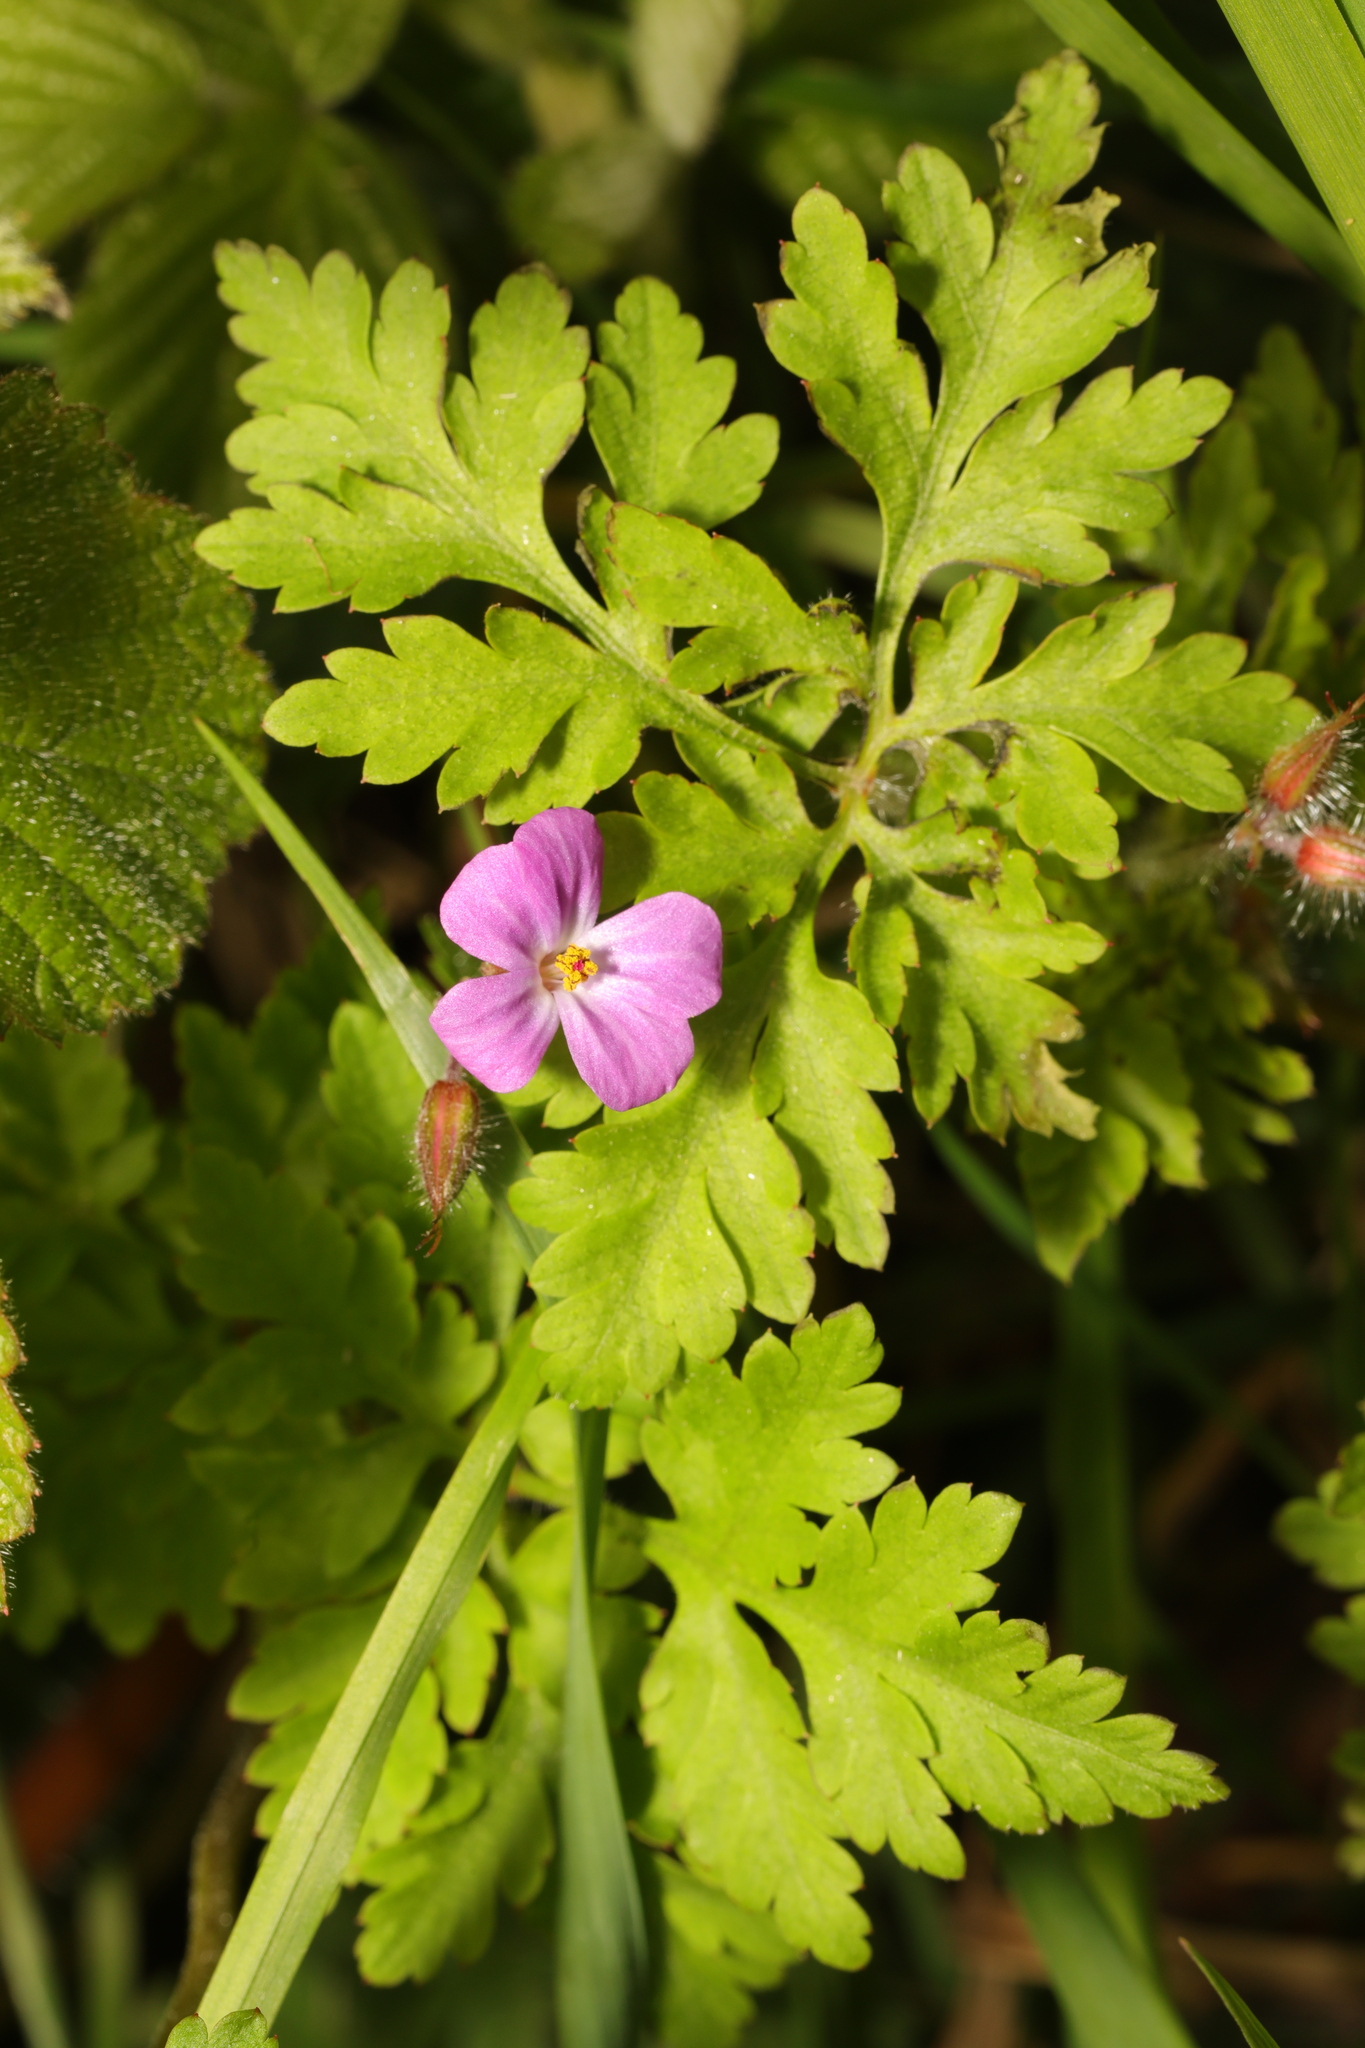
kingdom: Plantae
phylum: Tracheophyta
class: Magnoliopsida
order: Geraniales
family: Geraniaceae
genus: Geranium
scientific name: Geranium robertianum
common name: Herb-robert
